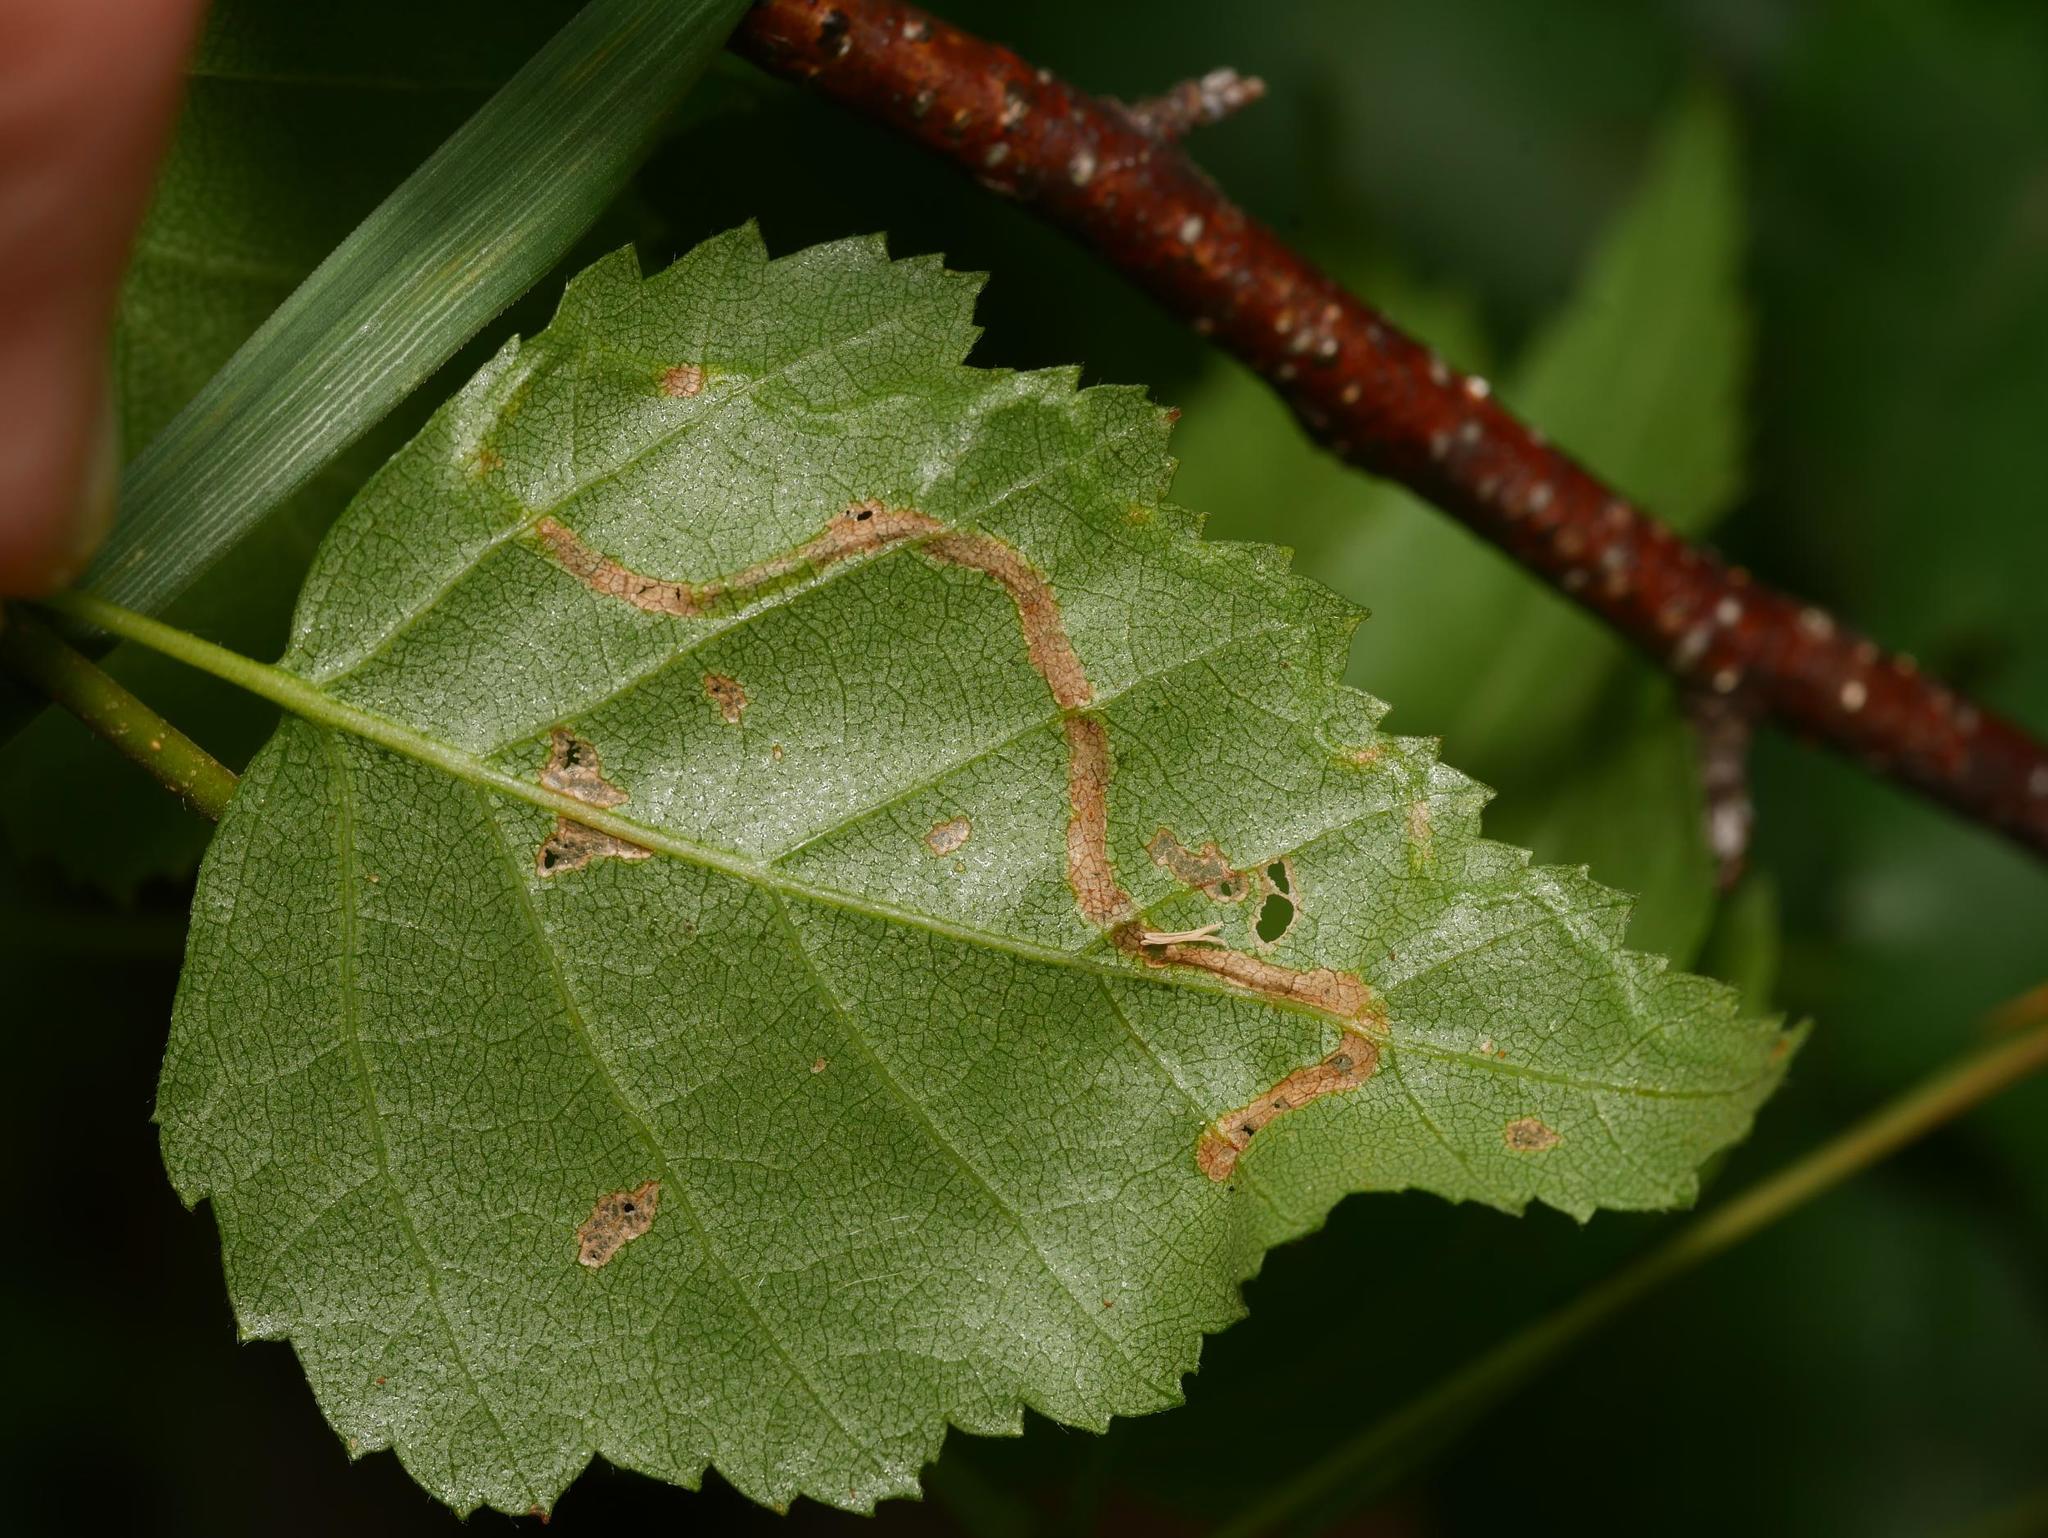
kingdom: Animalia
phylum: Arthropoda
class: Insecta
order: Diptera
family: Agromyzidae
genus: Agromyza
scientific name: Agromyza alnibetulae
